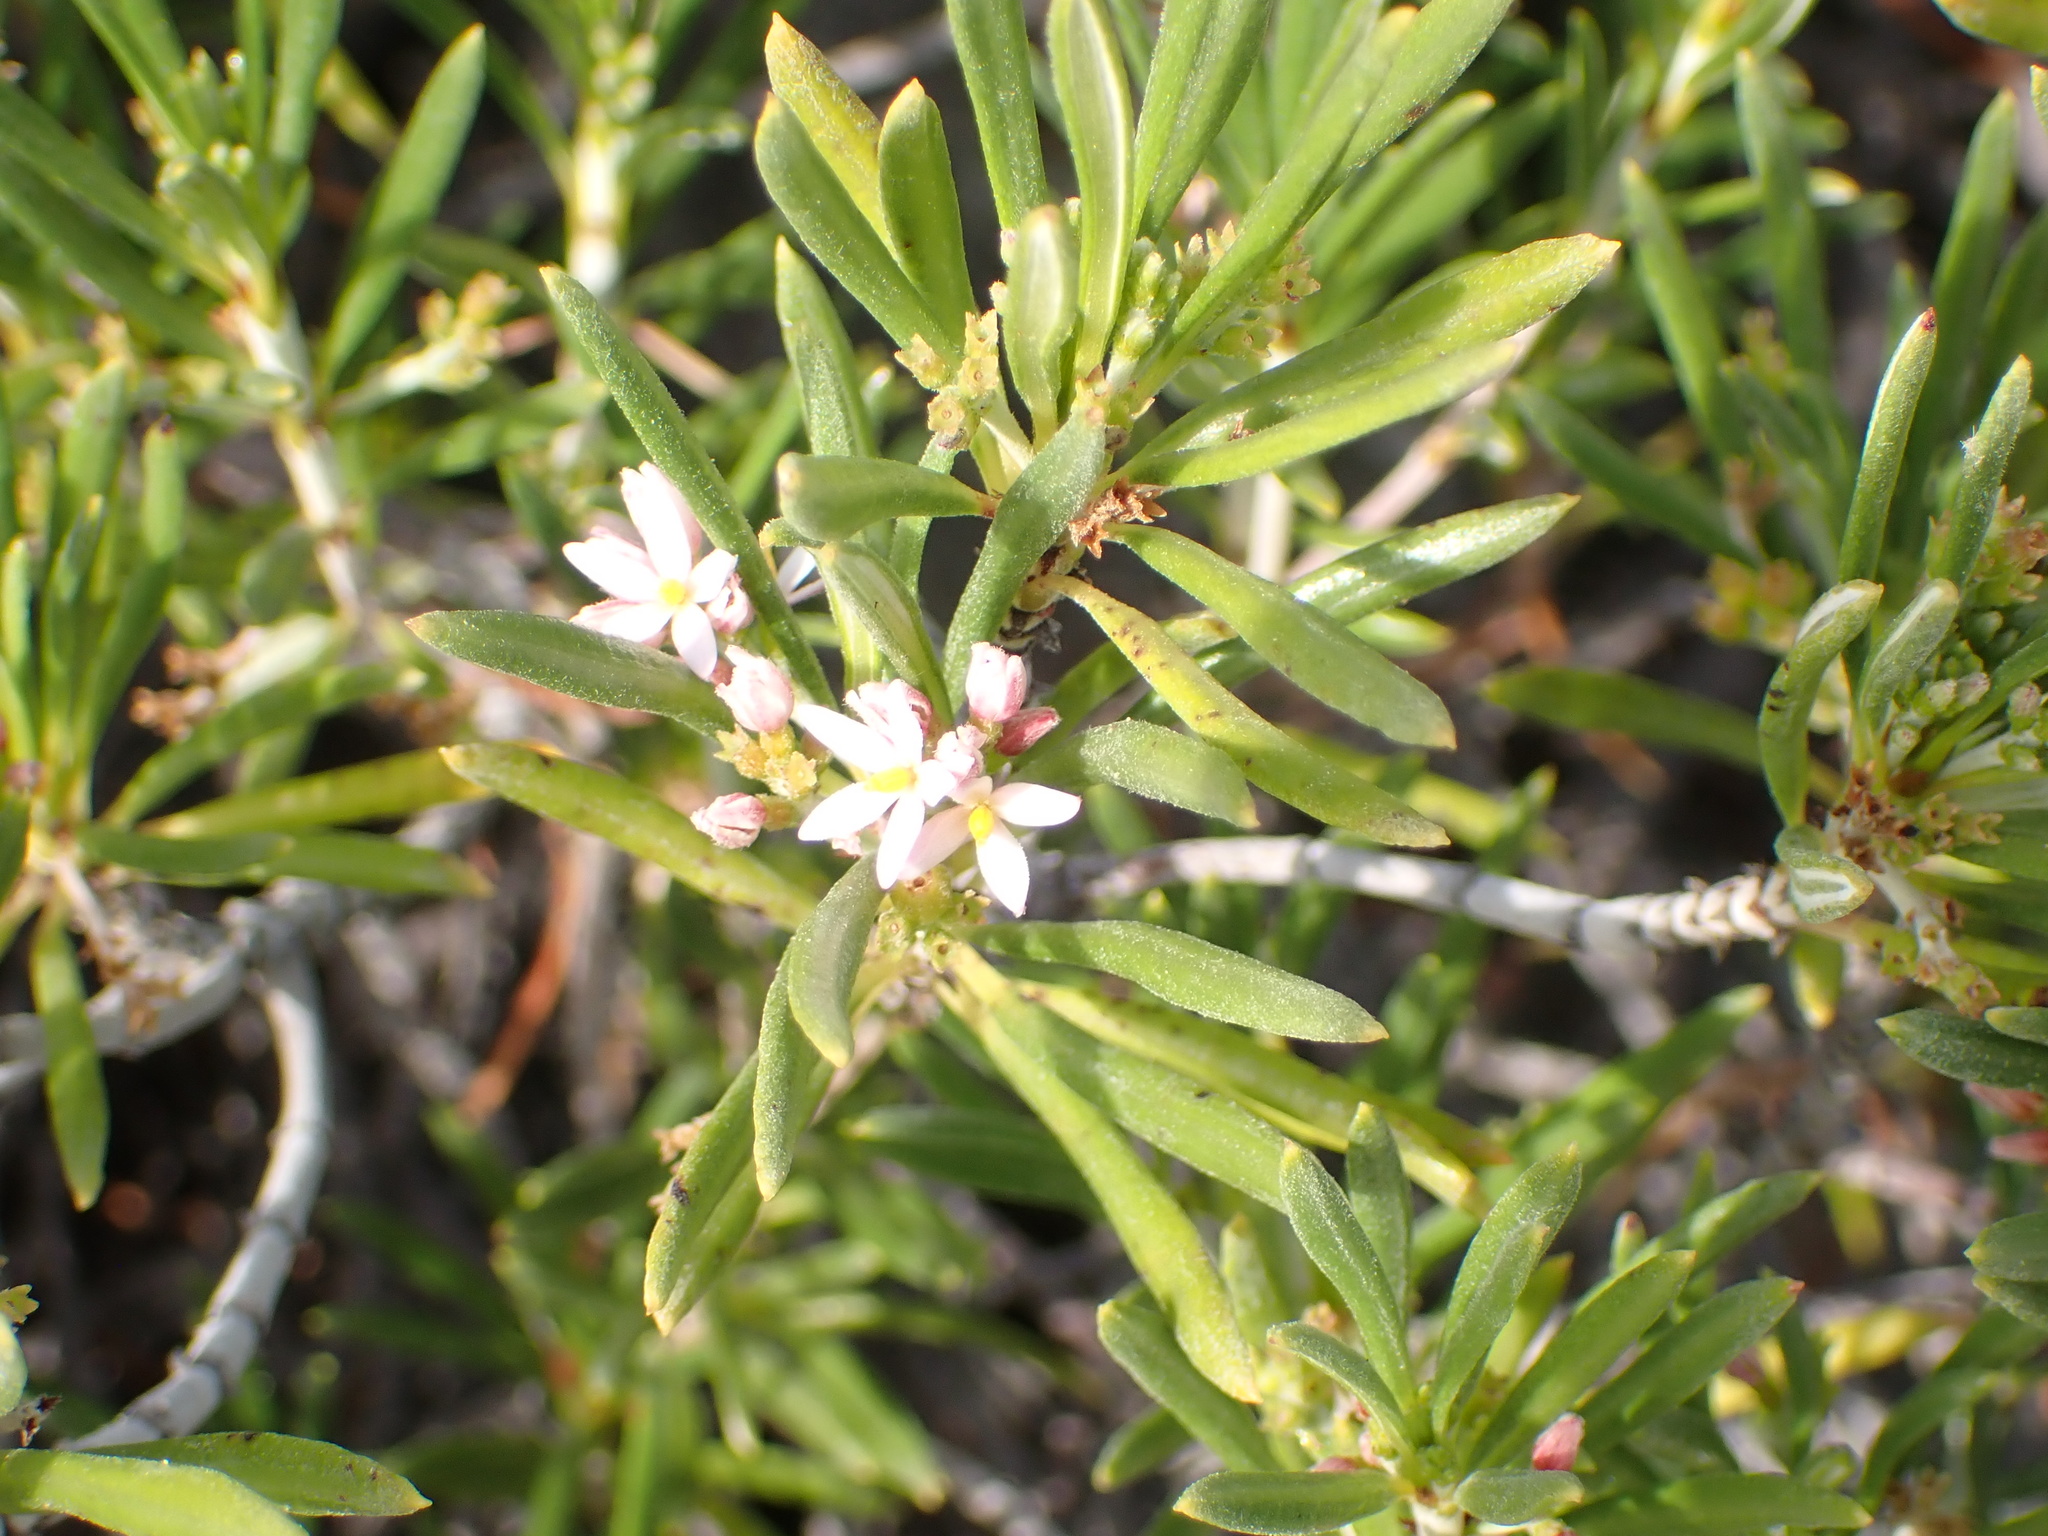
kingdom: Plantae
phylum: Tracheophyta
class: Magnoliopsida
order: Gentianales
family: Rubiaceae
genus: Strumpfia
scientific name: Strumpfia maritima
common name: Pride-of-big pine
